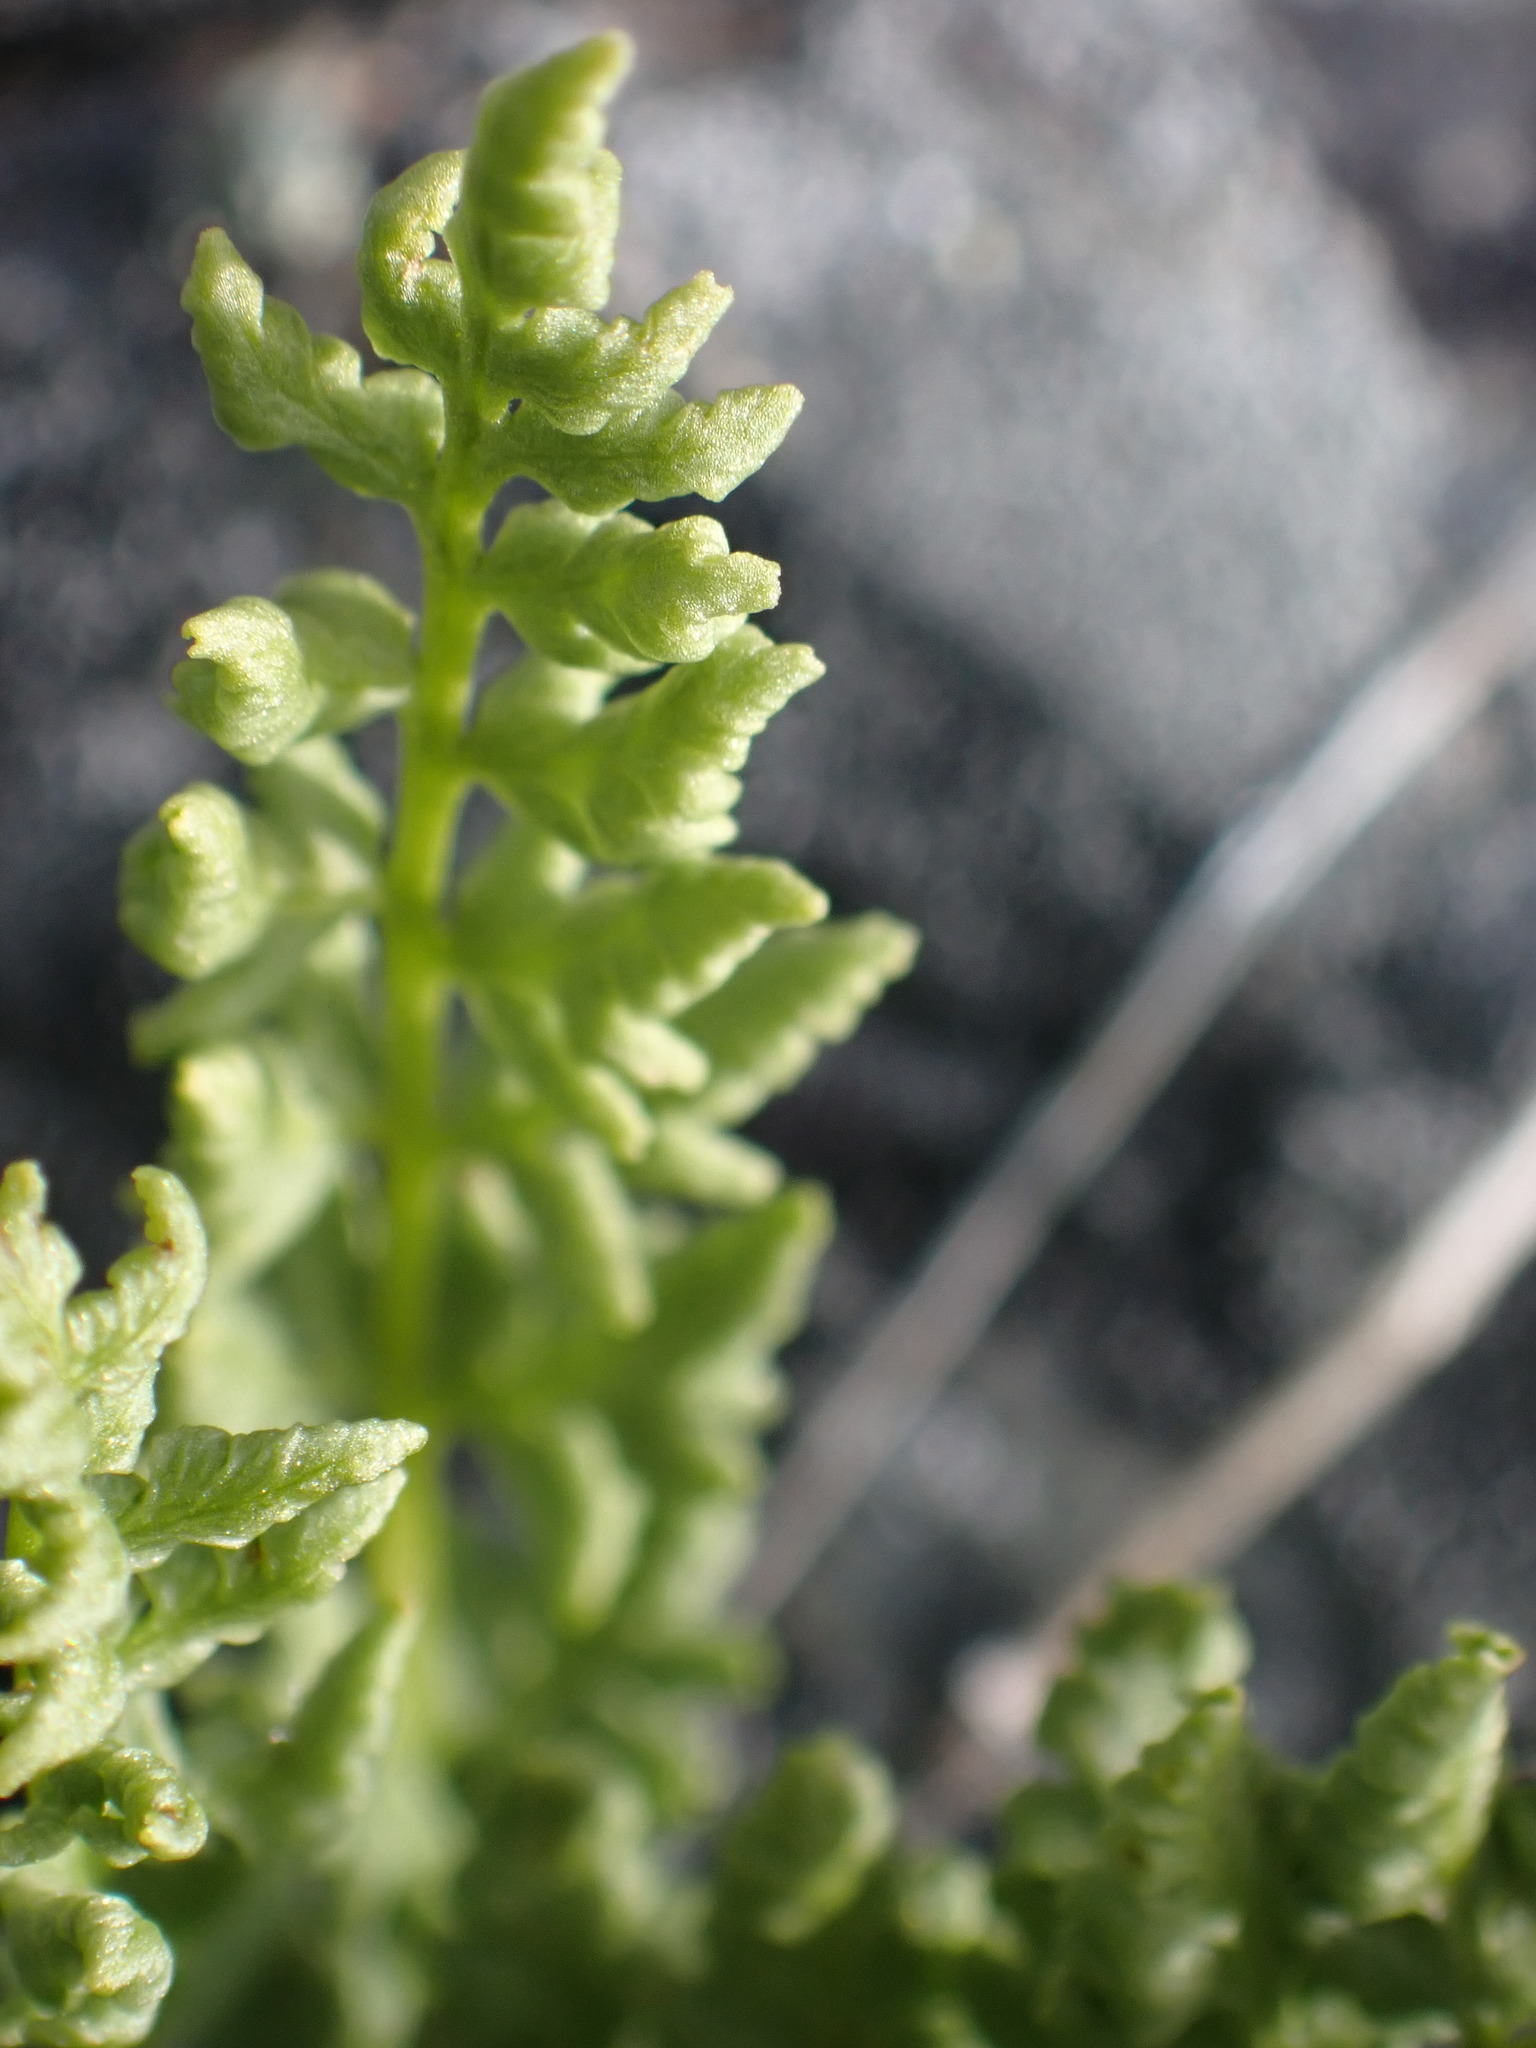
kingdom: Plantae
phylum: Tracheophyta
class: Polypodiopsida
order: Polypodiales
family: Woodsiaceae
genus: Physematium
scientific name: Physematium oreganum
